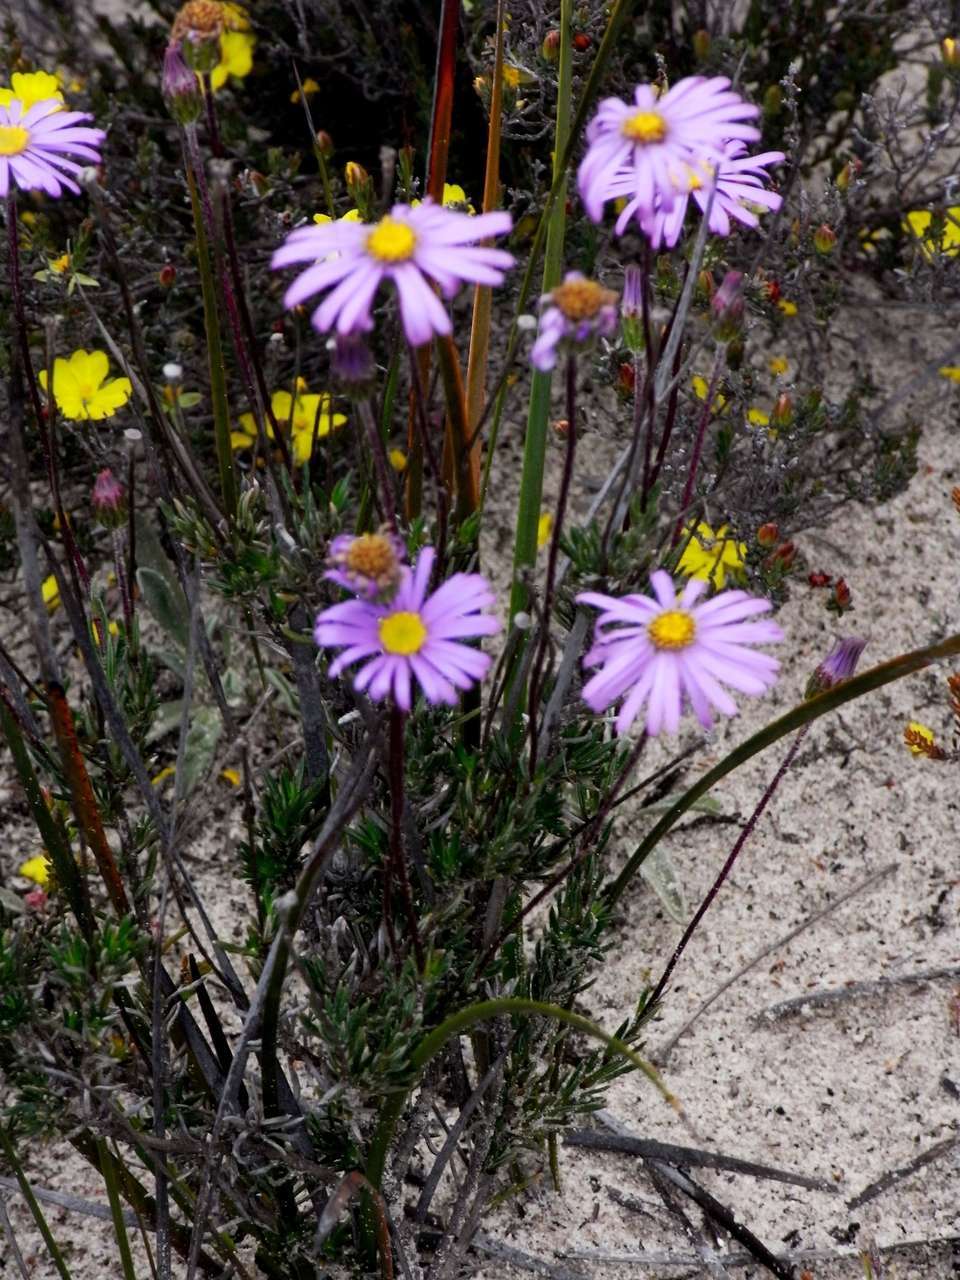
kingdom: Plantae
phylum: Tracheophyta
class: Magnoliopsida
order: Asterales
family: Asteraceae
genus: Olearia
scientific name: Olearia ciliata
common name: Fringed daisybush
